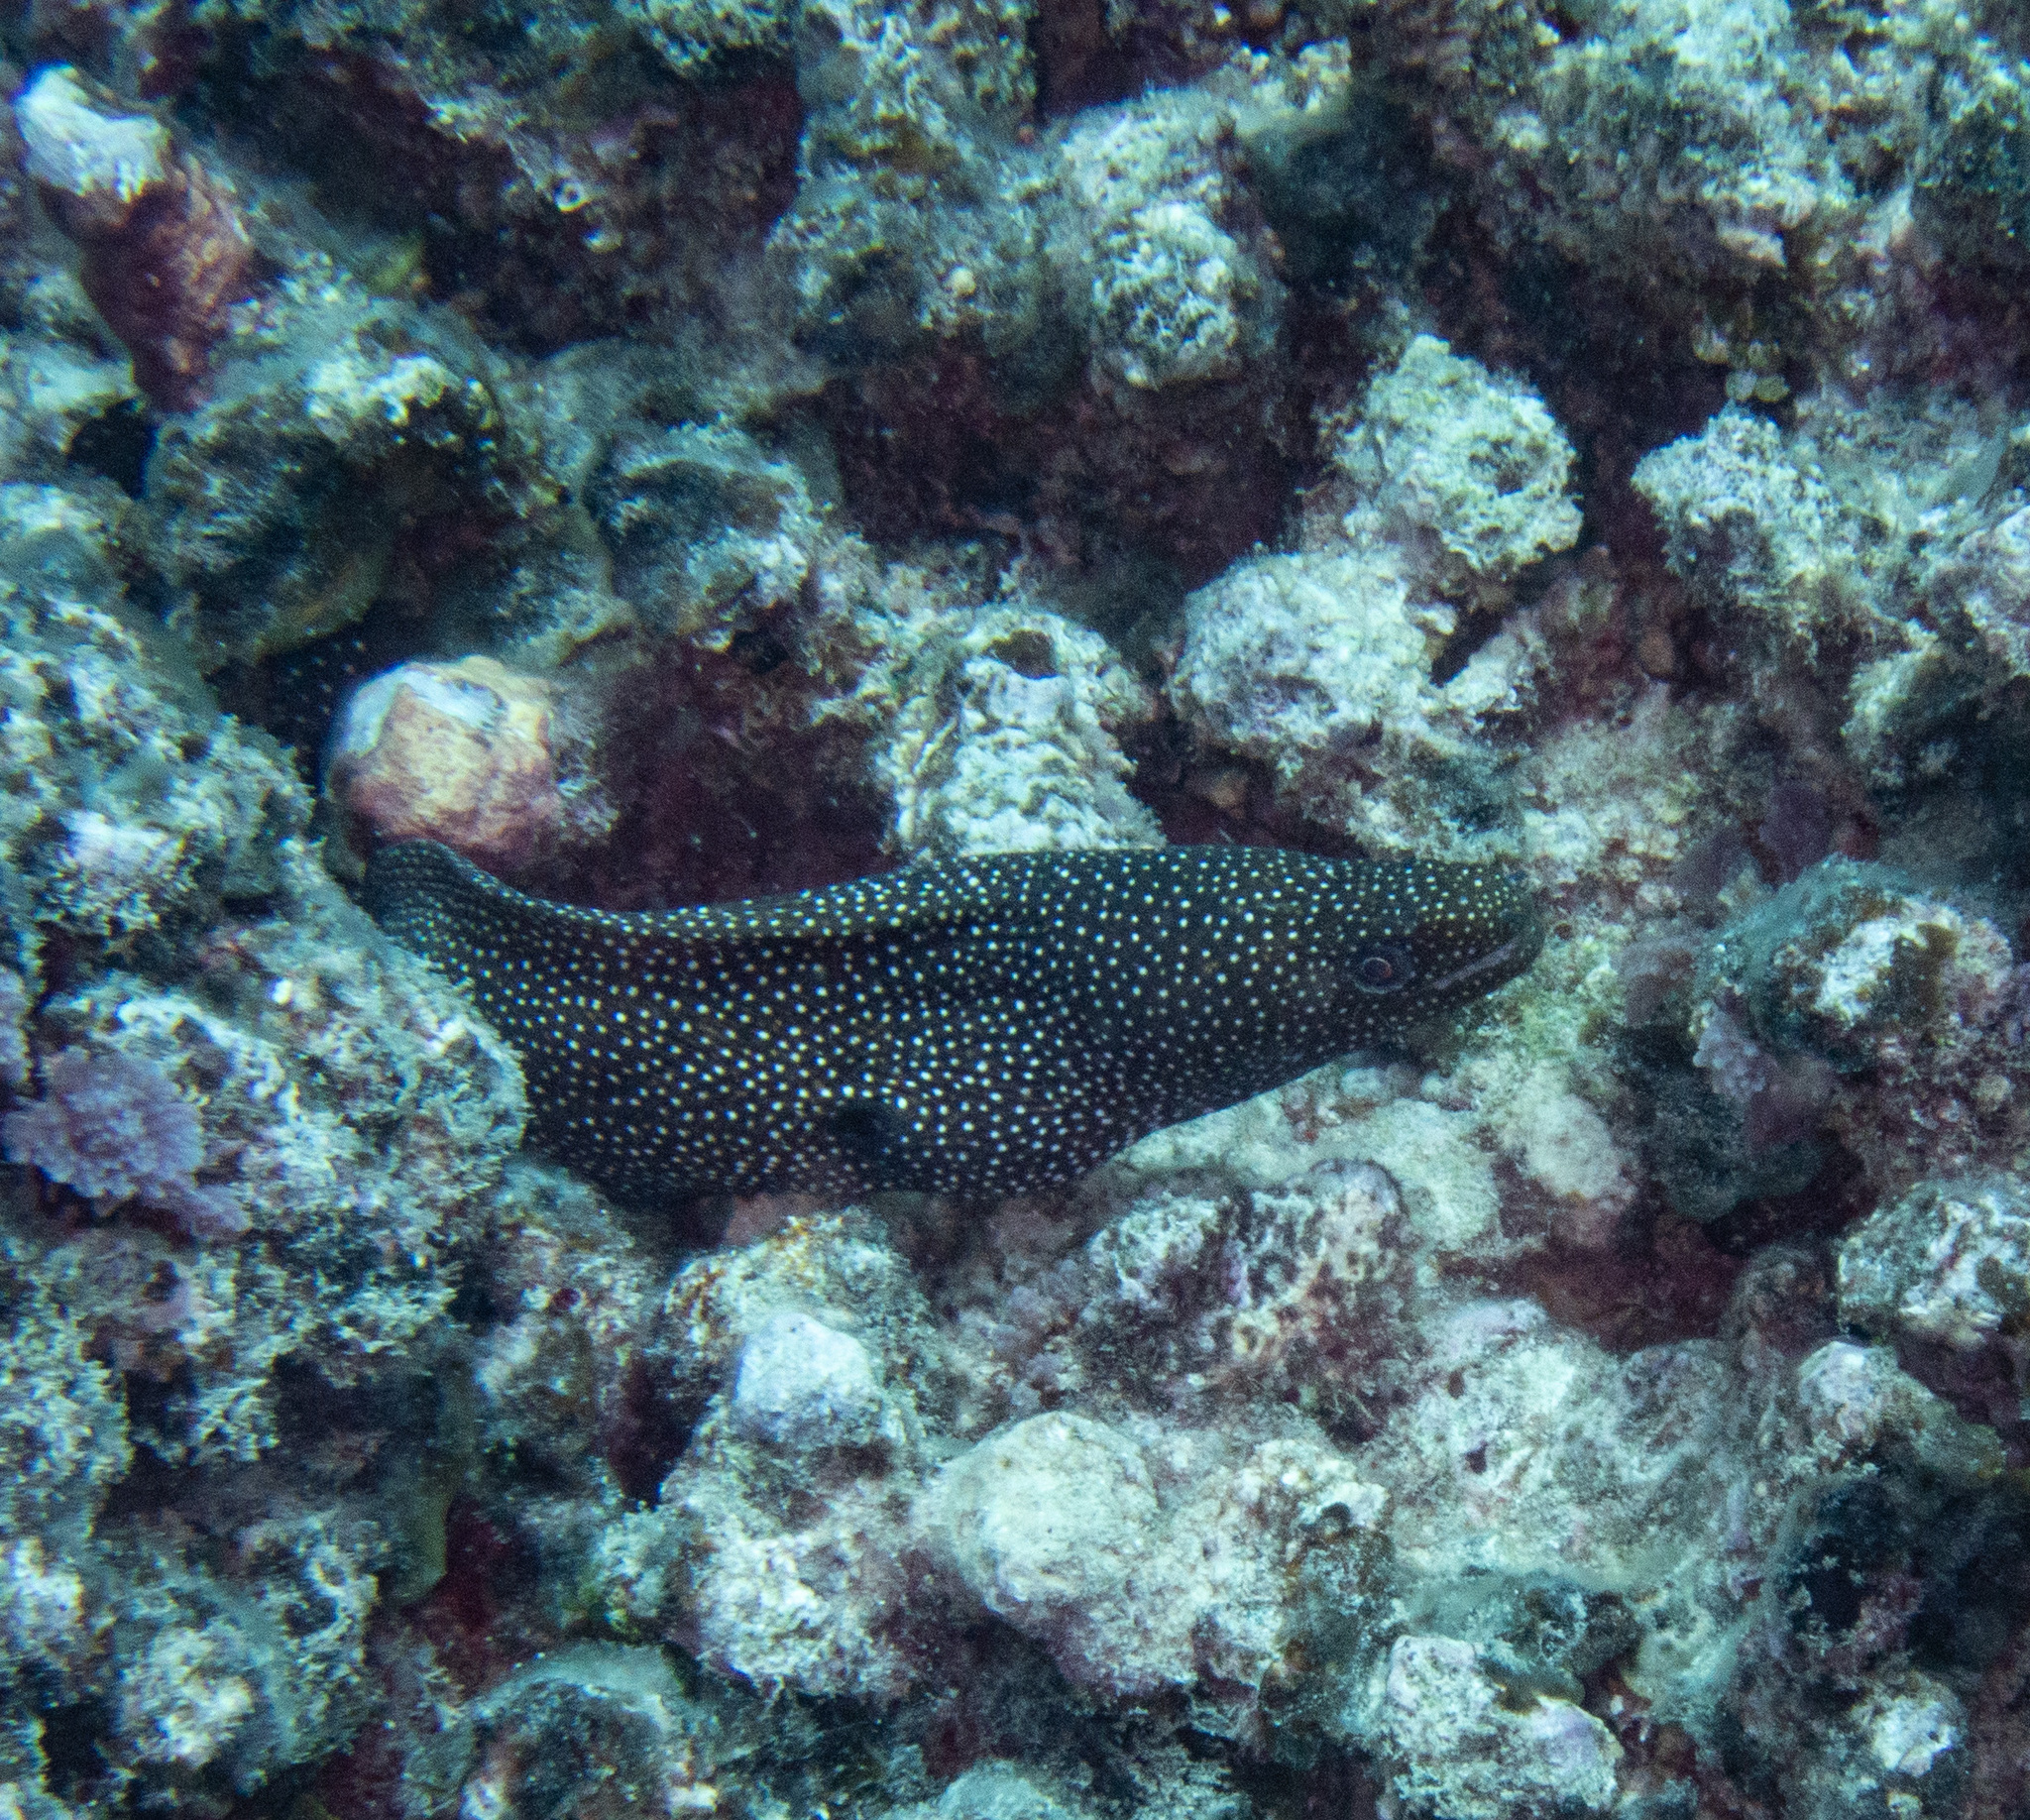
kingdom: Animalia
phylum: Chordata
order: Anguilliformes
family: Muraenidae
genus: Gymnothorax
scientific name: Gymnothorax meleagris
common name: Guineafowl moray
